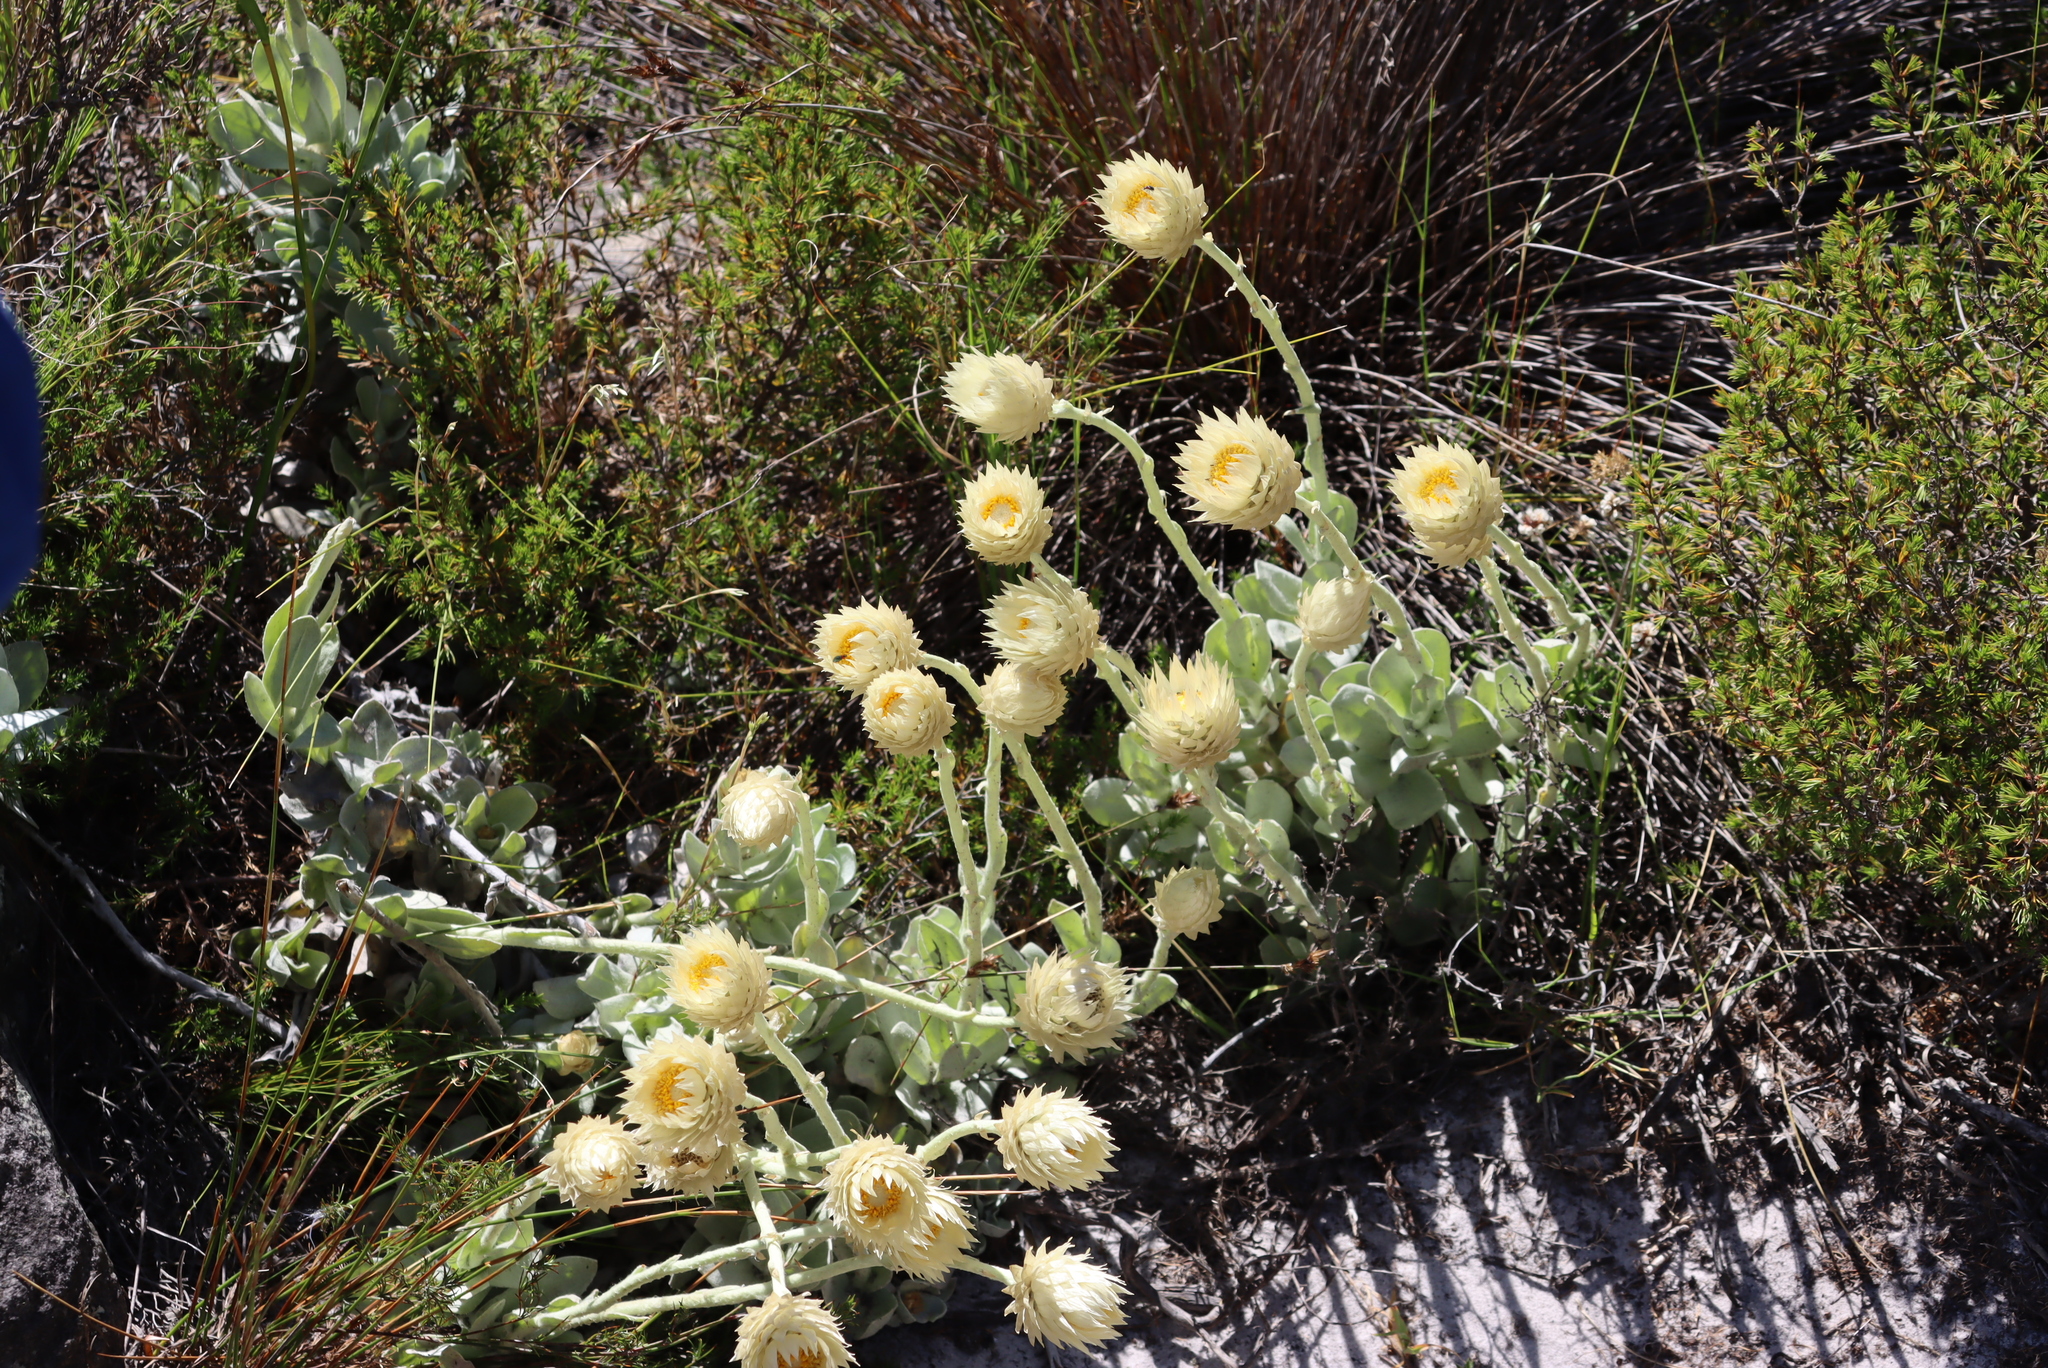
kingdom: Plantae
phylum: Tracheophyta
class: Magnoliopsida
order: Asterales
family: Asteraceae
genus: Syncarpha
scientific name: Syncarpha speciosissima
